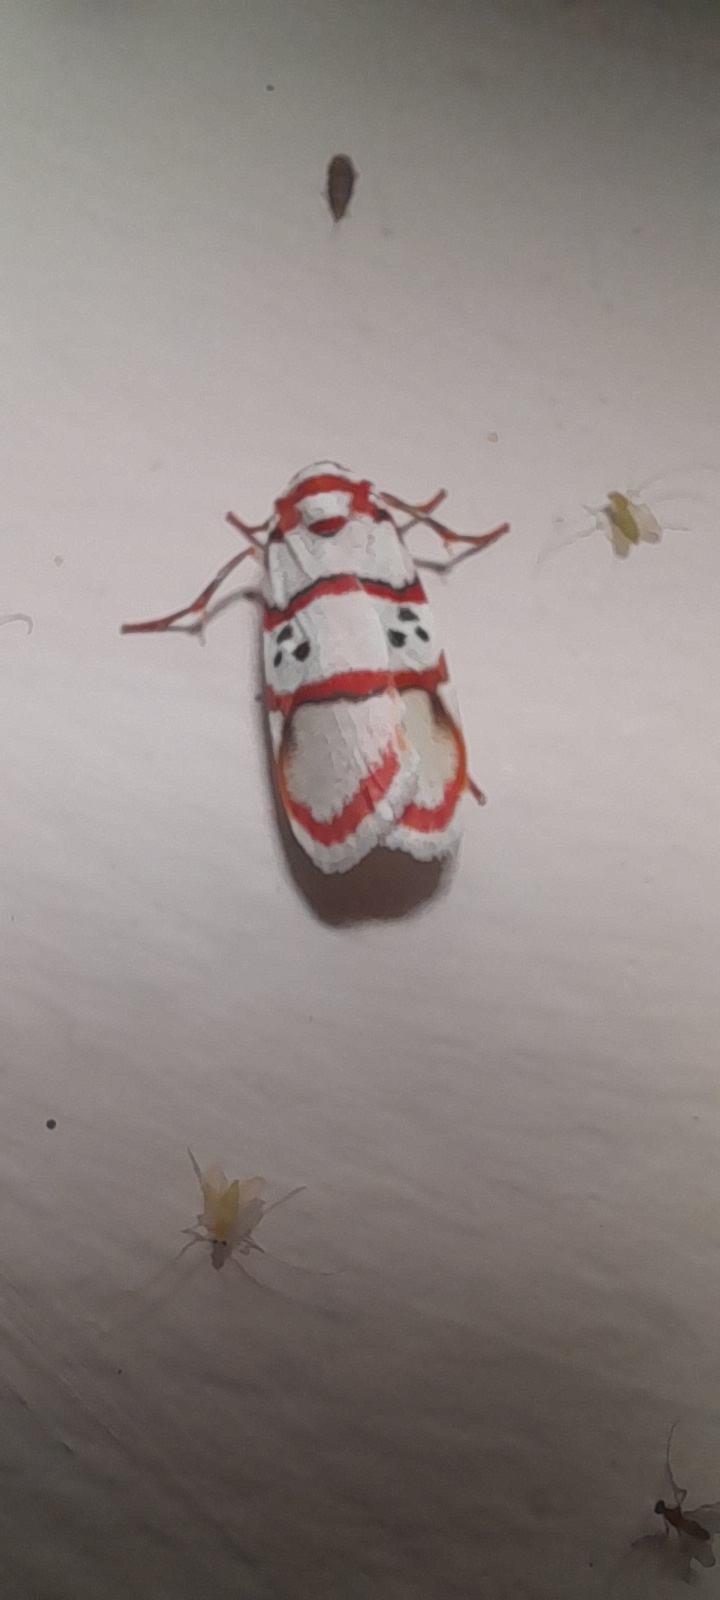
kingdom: Animalia
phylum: Arthropoda
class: Insecta
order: Lepidoptera
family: Erebidae
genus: Cyana
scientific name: Cyana peregrina
